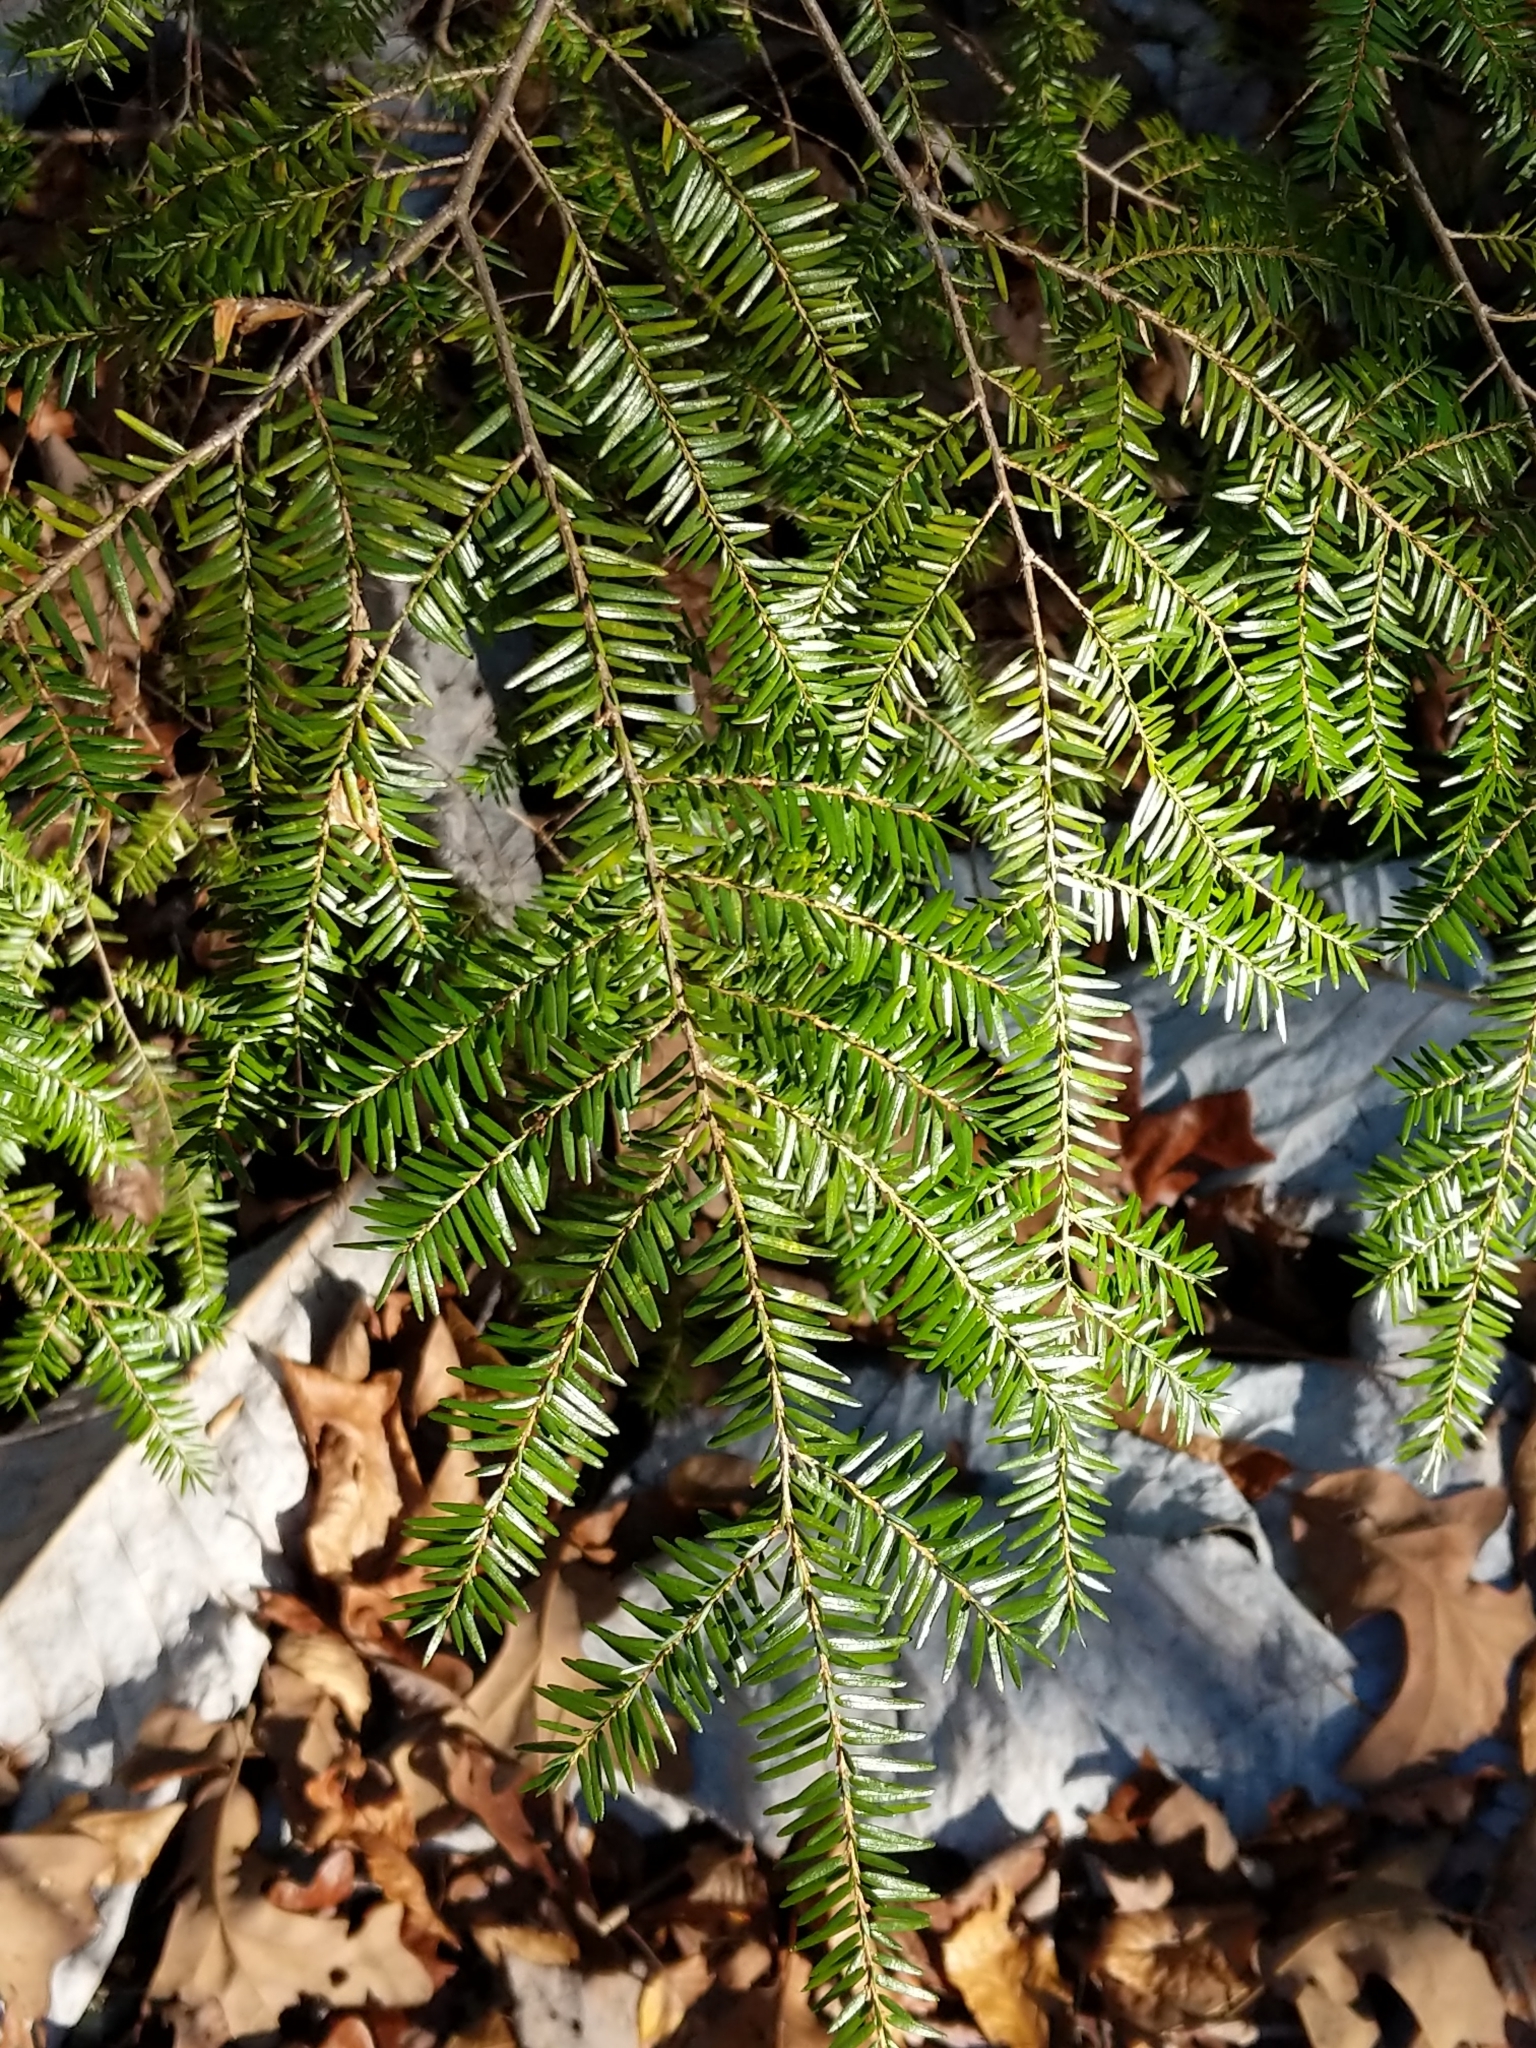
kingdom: Plantae
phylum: Tracheophyta
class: Pinopsida
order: Pinales
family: Pinaceae
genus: Tsuga
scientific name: Tsuga canadensis
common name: Eastern hemlock
